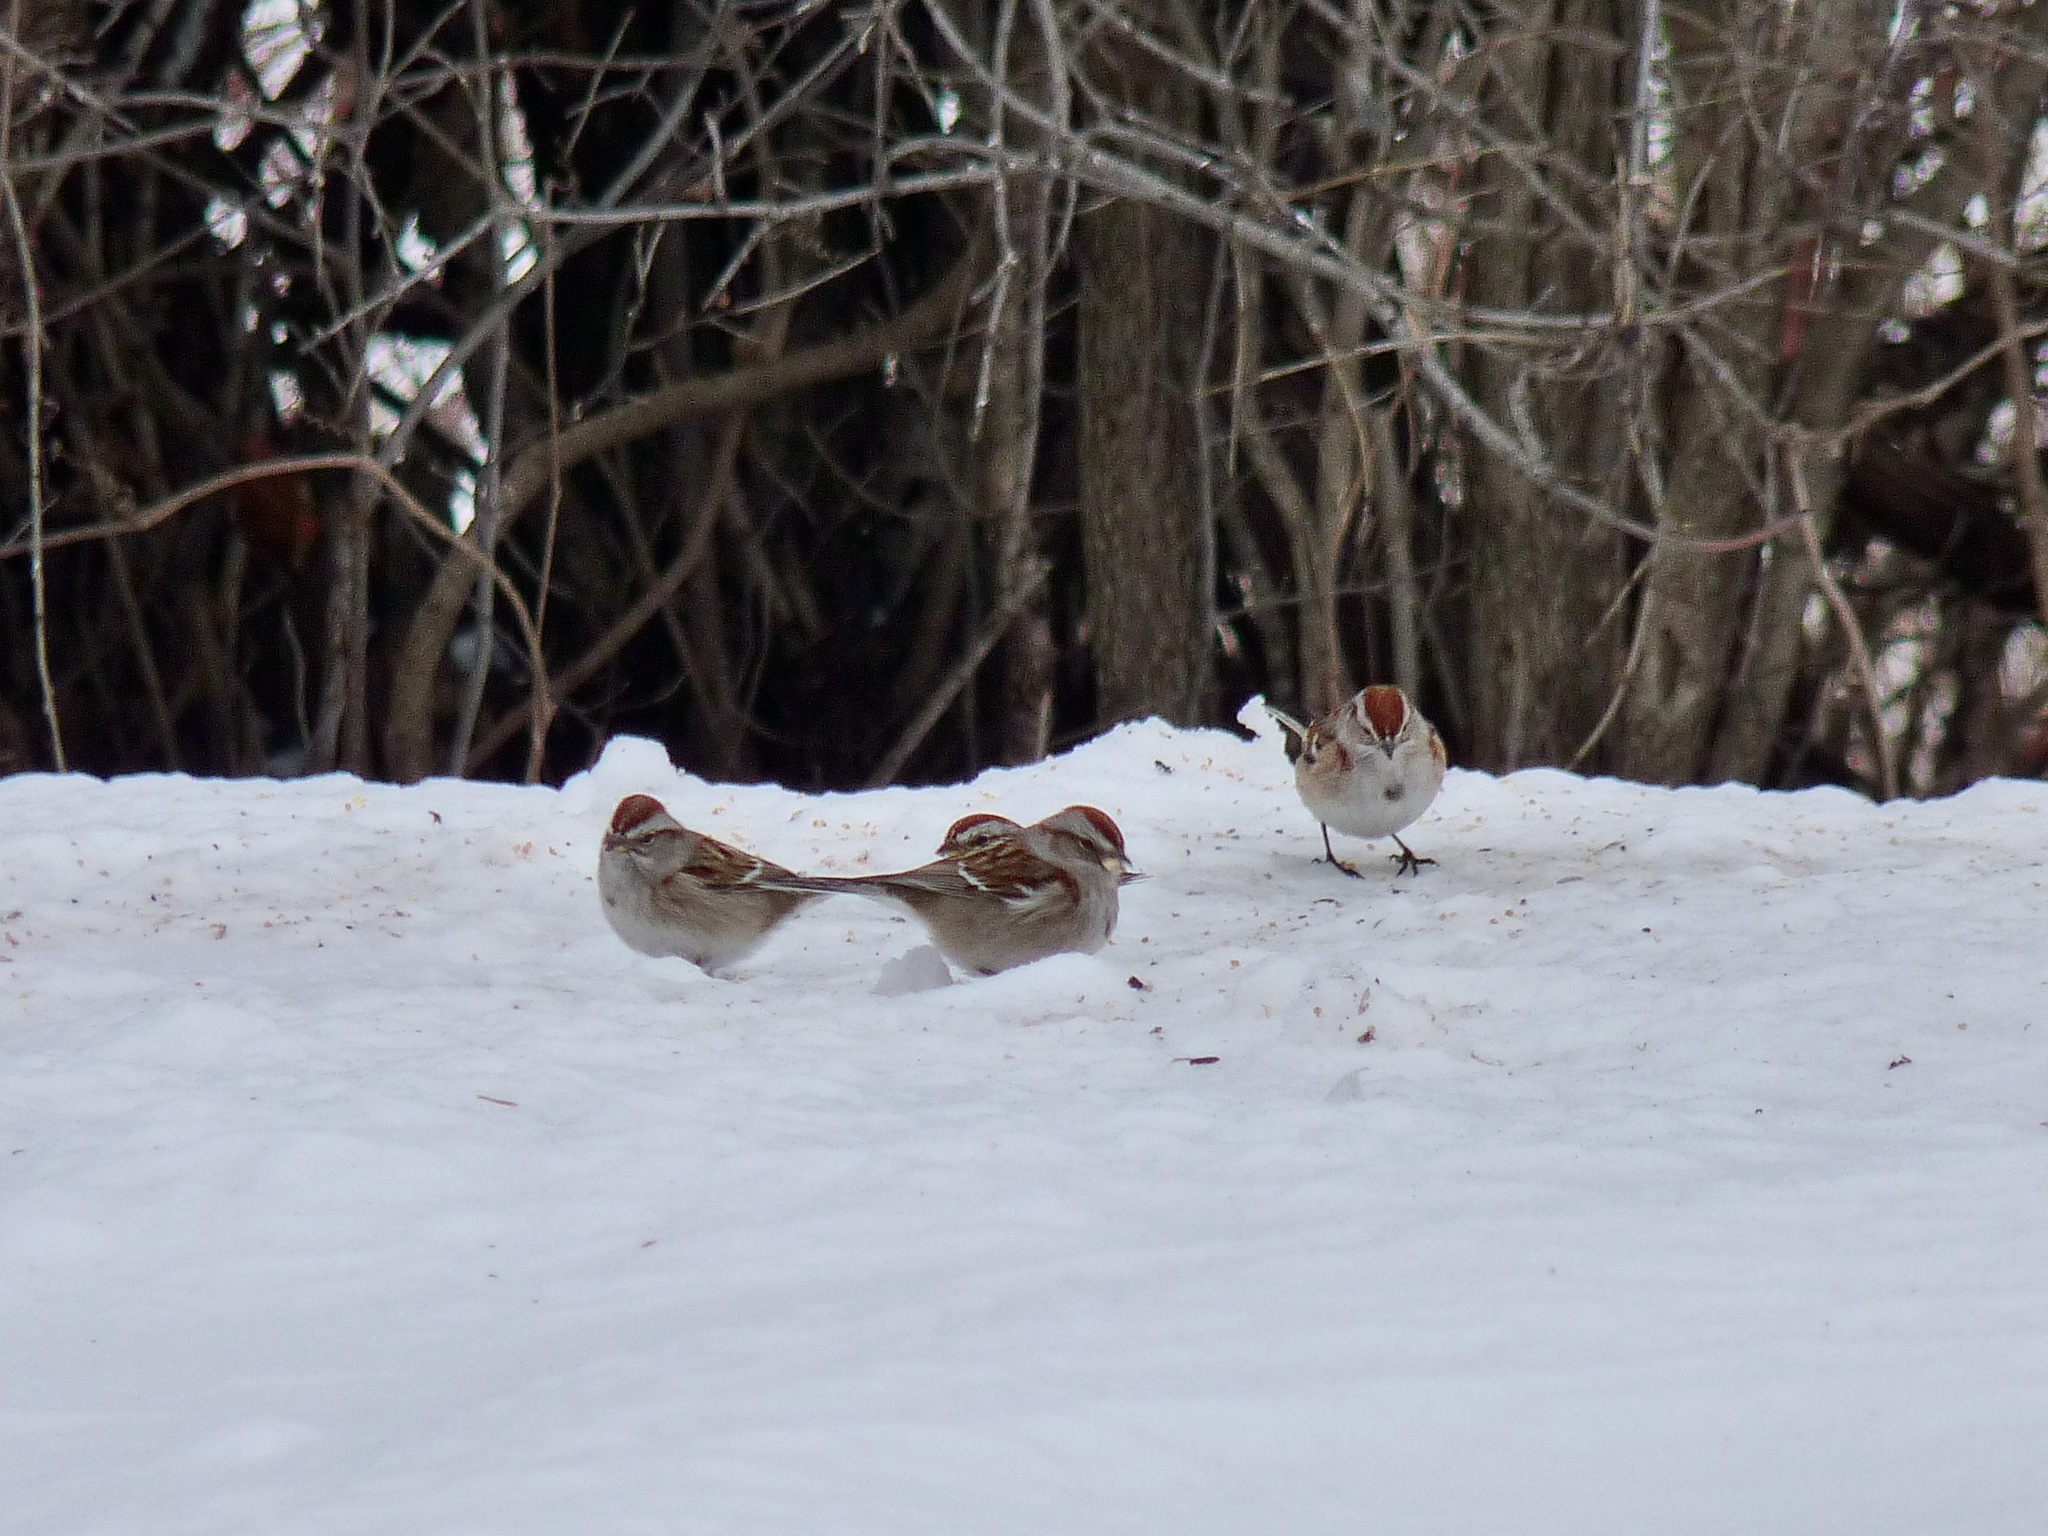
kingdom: Animalia
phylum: Chordata
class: Aves
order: Passeriformes
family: Passerellidae
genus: Spizelloides
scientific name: Spizelloides arborea
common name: American tree sparrow
